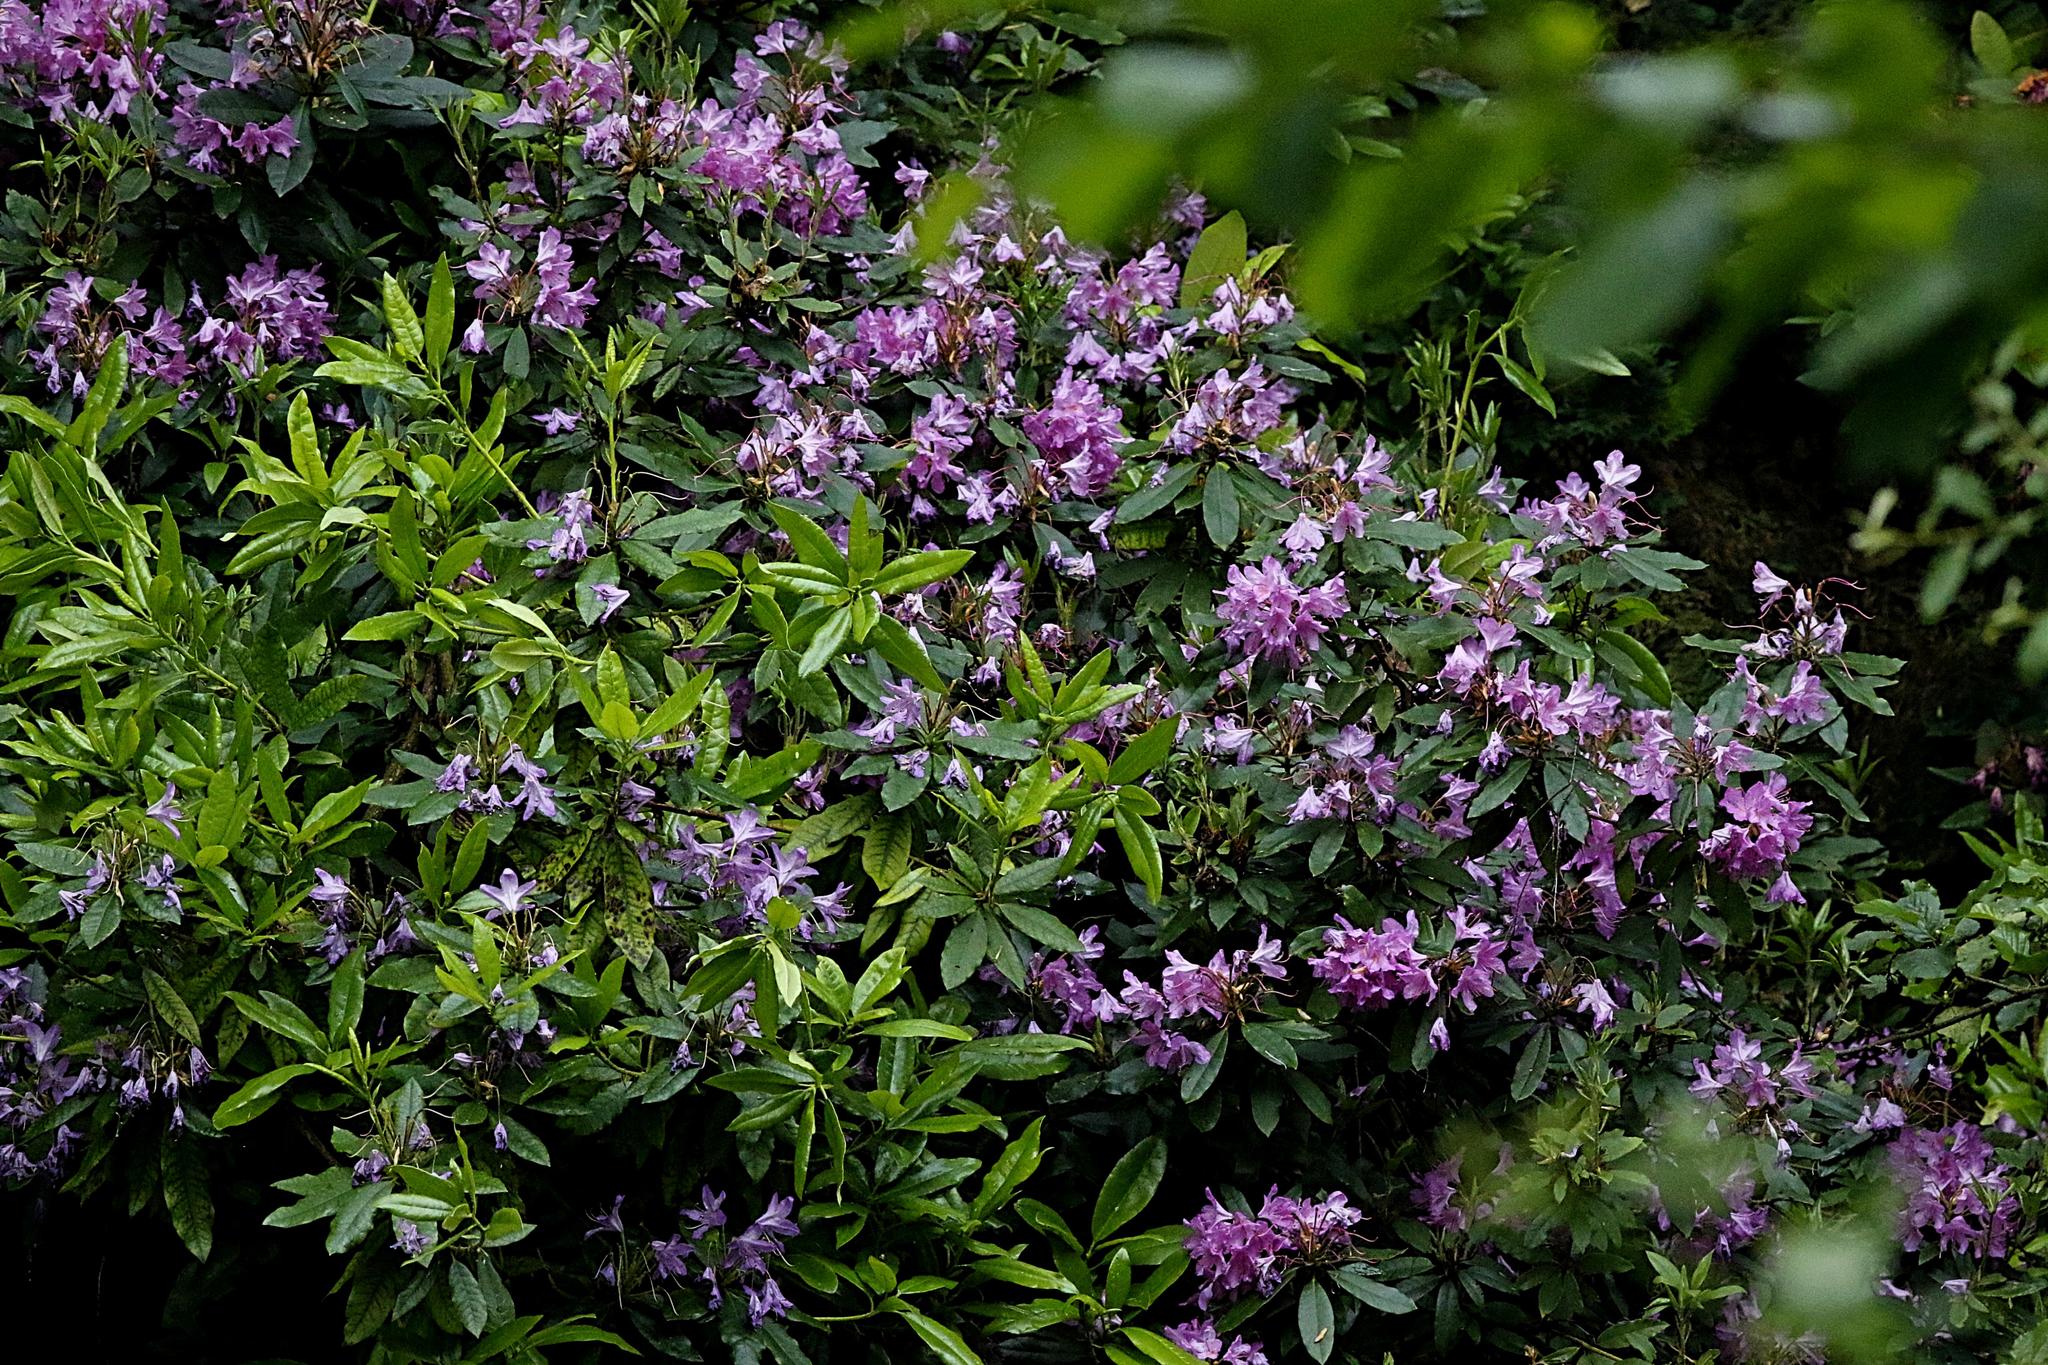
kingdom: Plantae
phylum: Tracheophyta
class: Magnoliopsida
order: Ericales
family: Ericaceae
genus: Rhododendron
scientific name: Rhododendron ponticum
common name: Rhododendron
